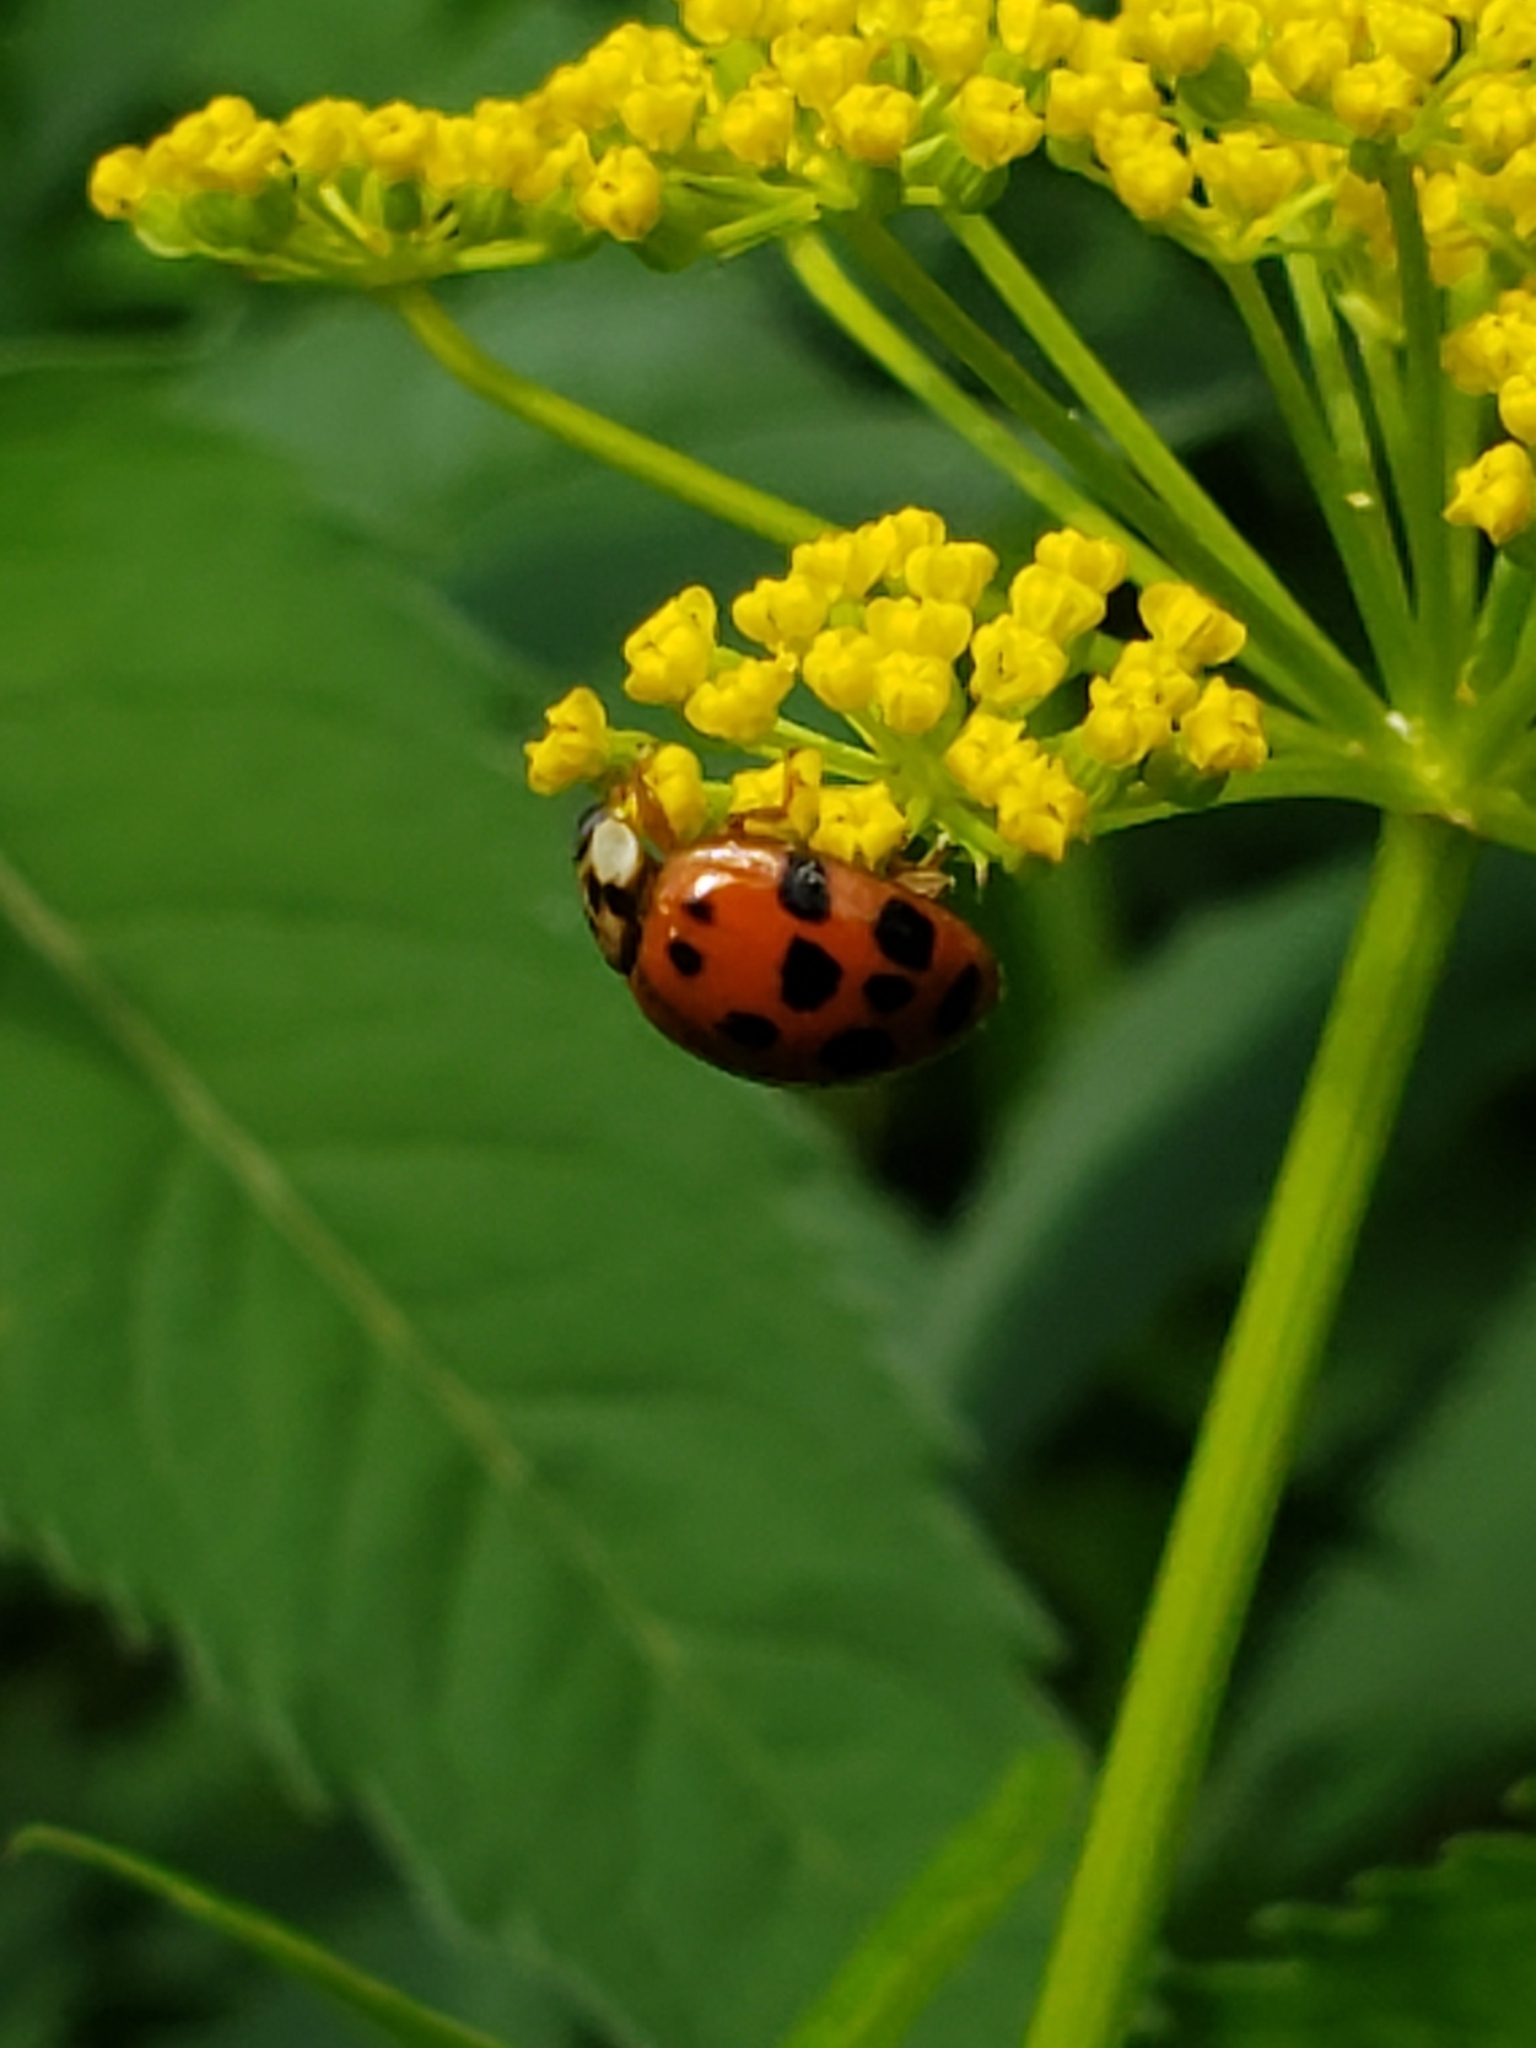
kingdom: Animalia
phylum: Arthropoda
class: Insecta
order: Coleoptera
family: Coccinellidae
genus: Harmonia
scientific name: Harmonia axyridis
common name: Harlequin ladybird
